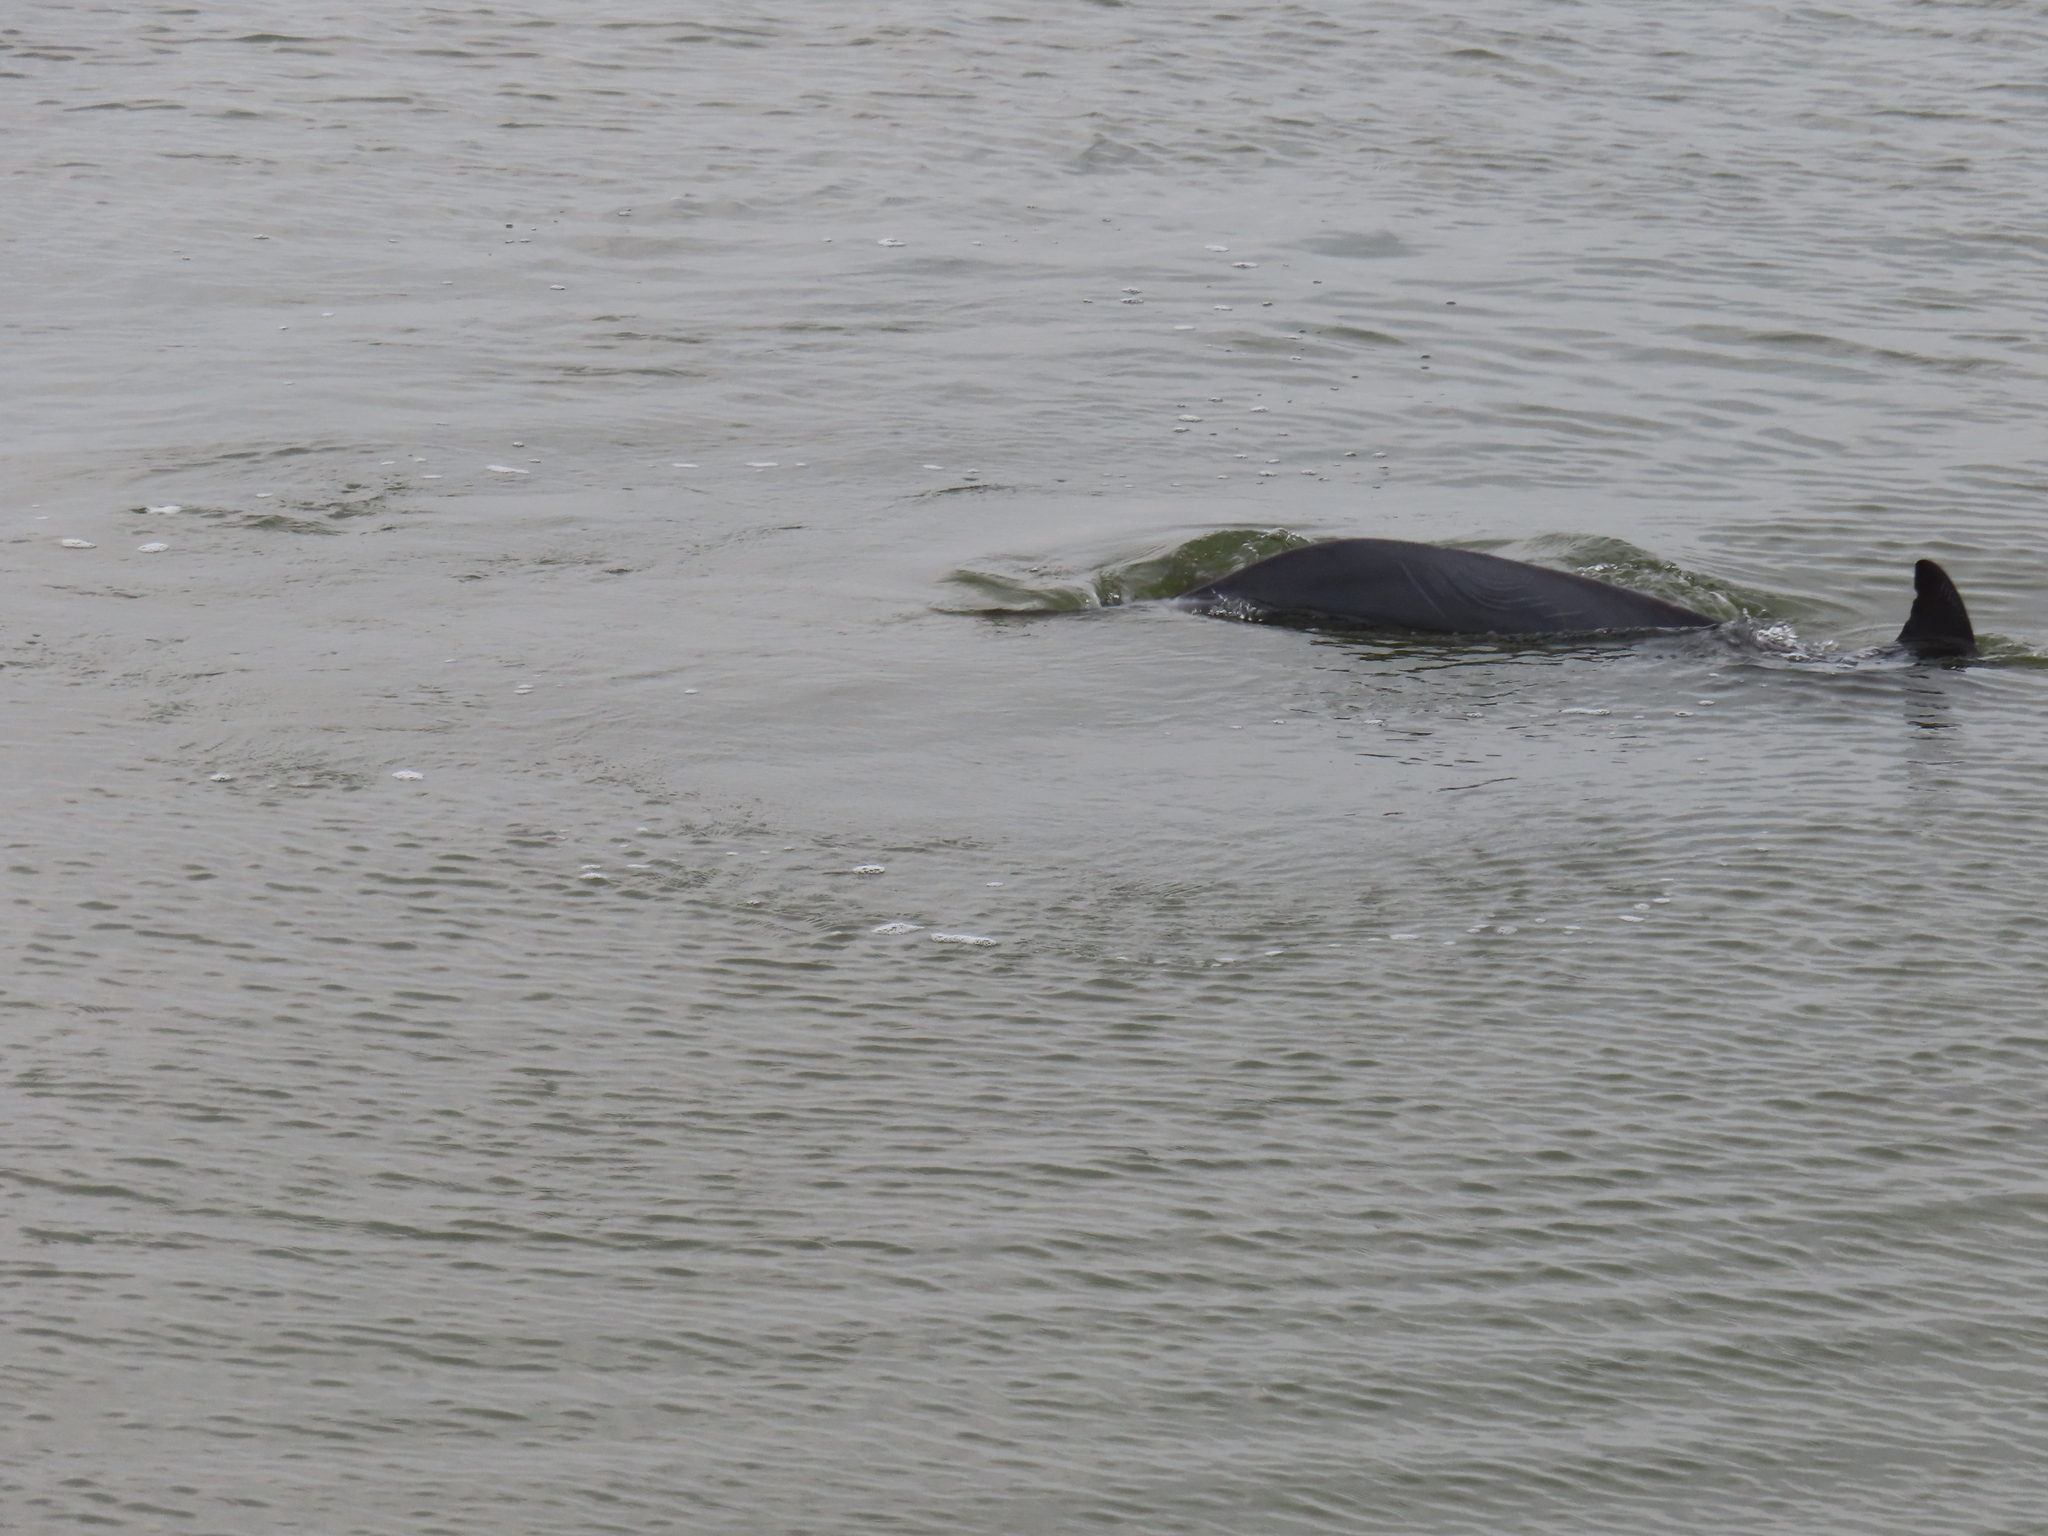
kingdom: Animalia
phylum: Chordata
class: Mammalia
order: Cetacea
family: Delphinidae
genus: Tursiops
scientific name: Tursiops truncatus
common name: Bottlenose dolphin
